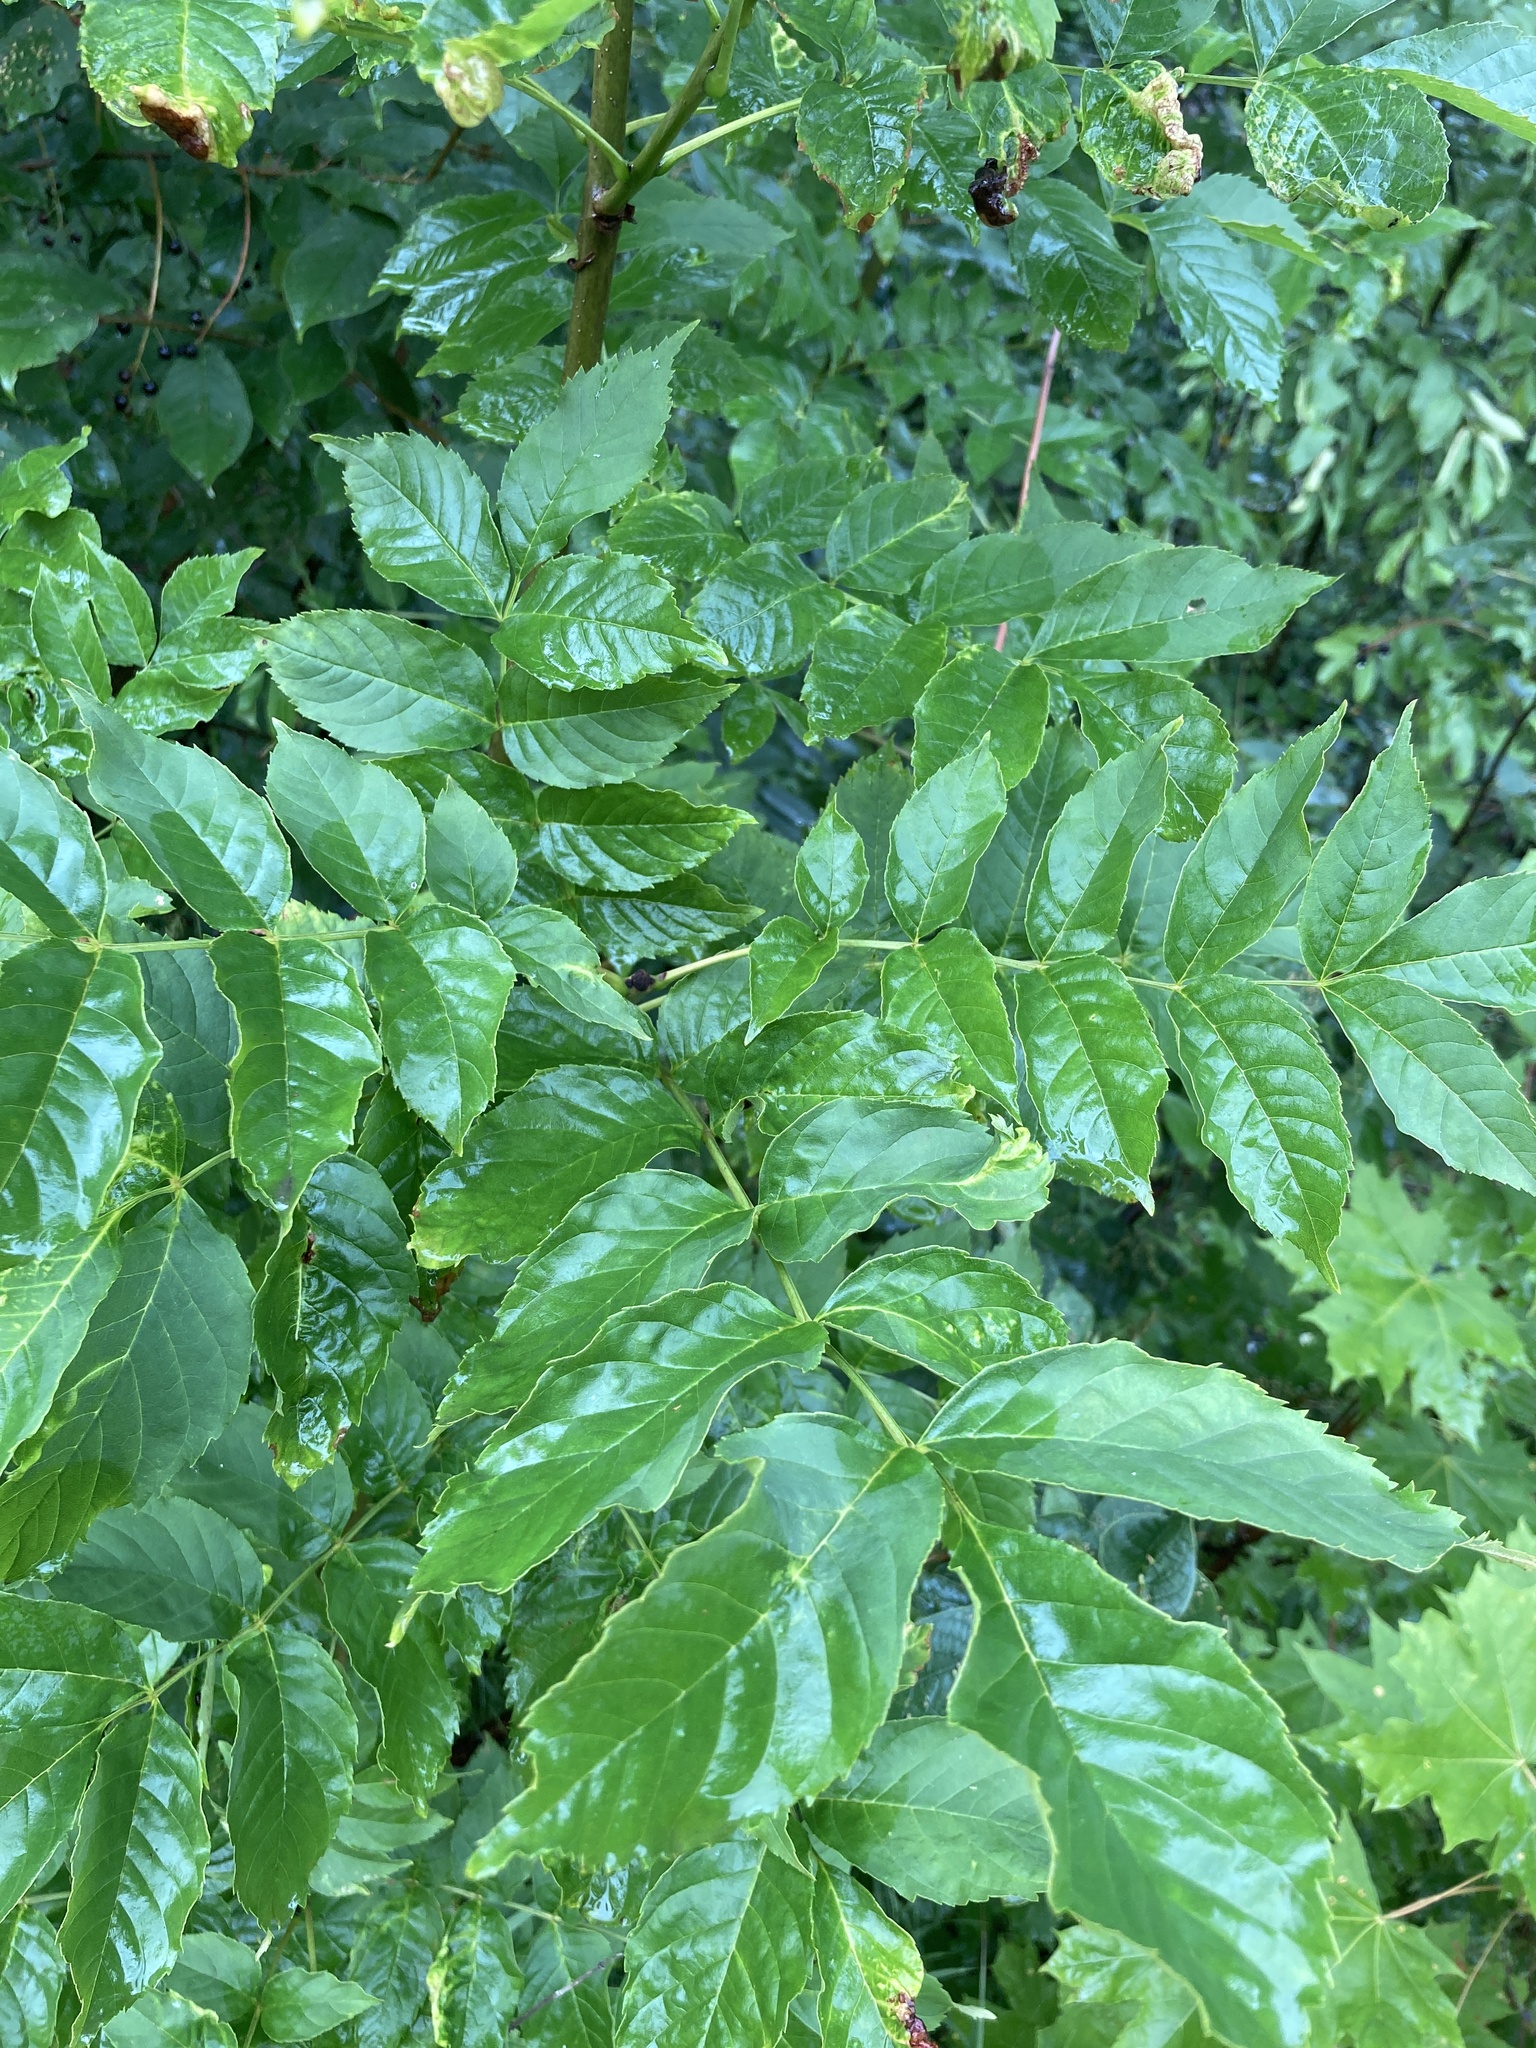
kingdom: Plantae
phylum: Tracheophyta
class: Magnoliopsida
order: Lamiales
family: Oleaceae
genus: Fraxinus
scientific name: Fraxinus excelsior
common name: European ash
